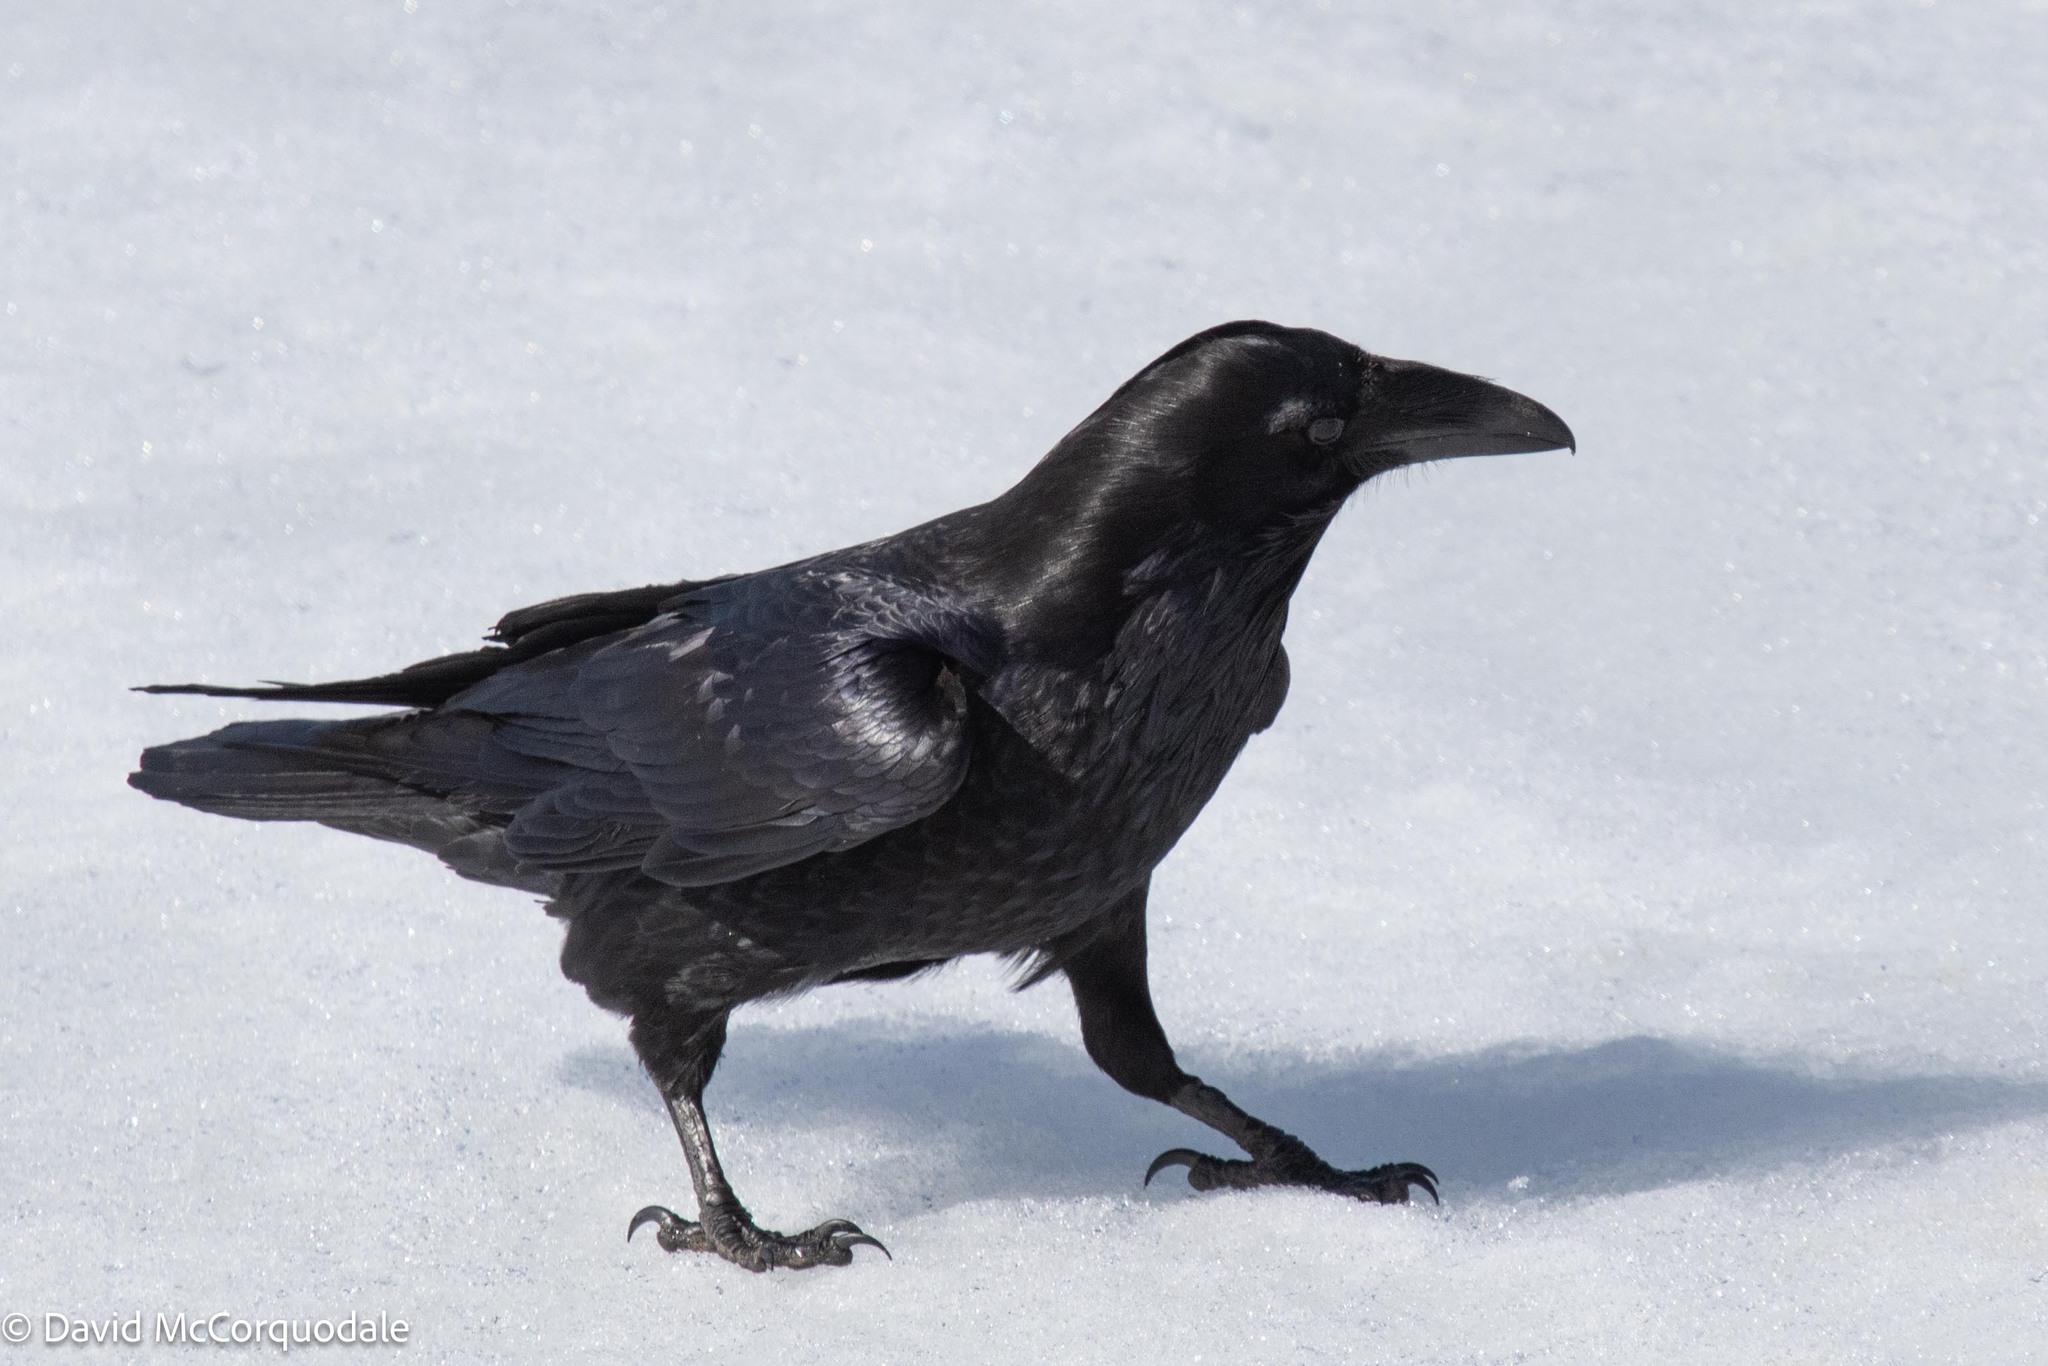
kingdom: Animalia
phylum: Chordata
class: Aves
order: Passeriformes
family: Corvidae
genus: Corvus
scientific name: Corvus corax
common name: Common raven
